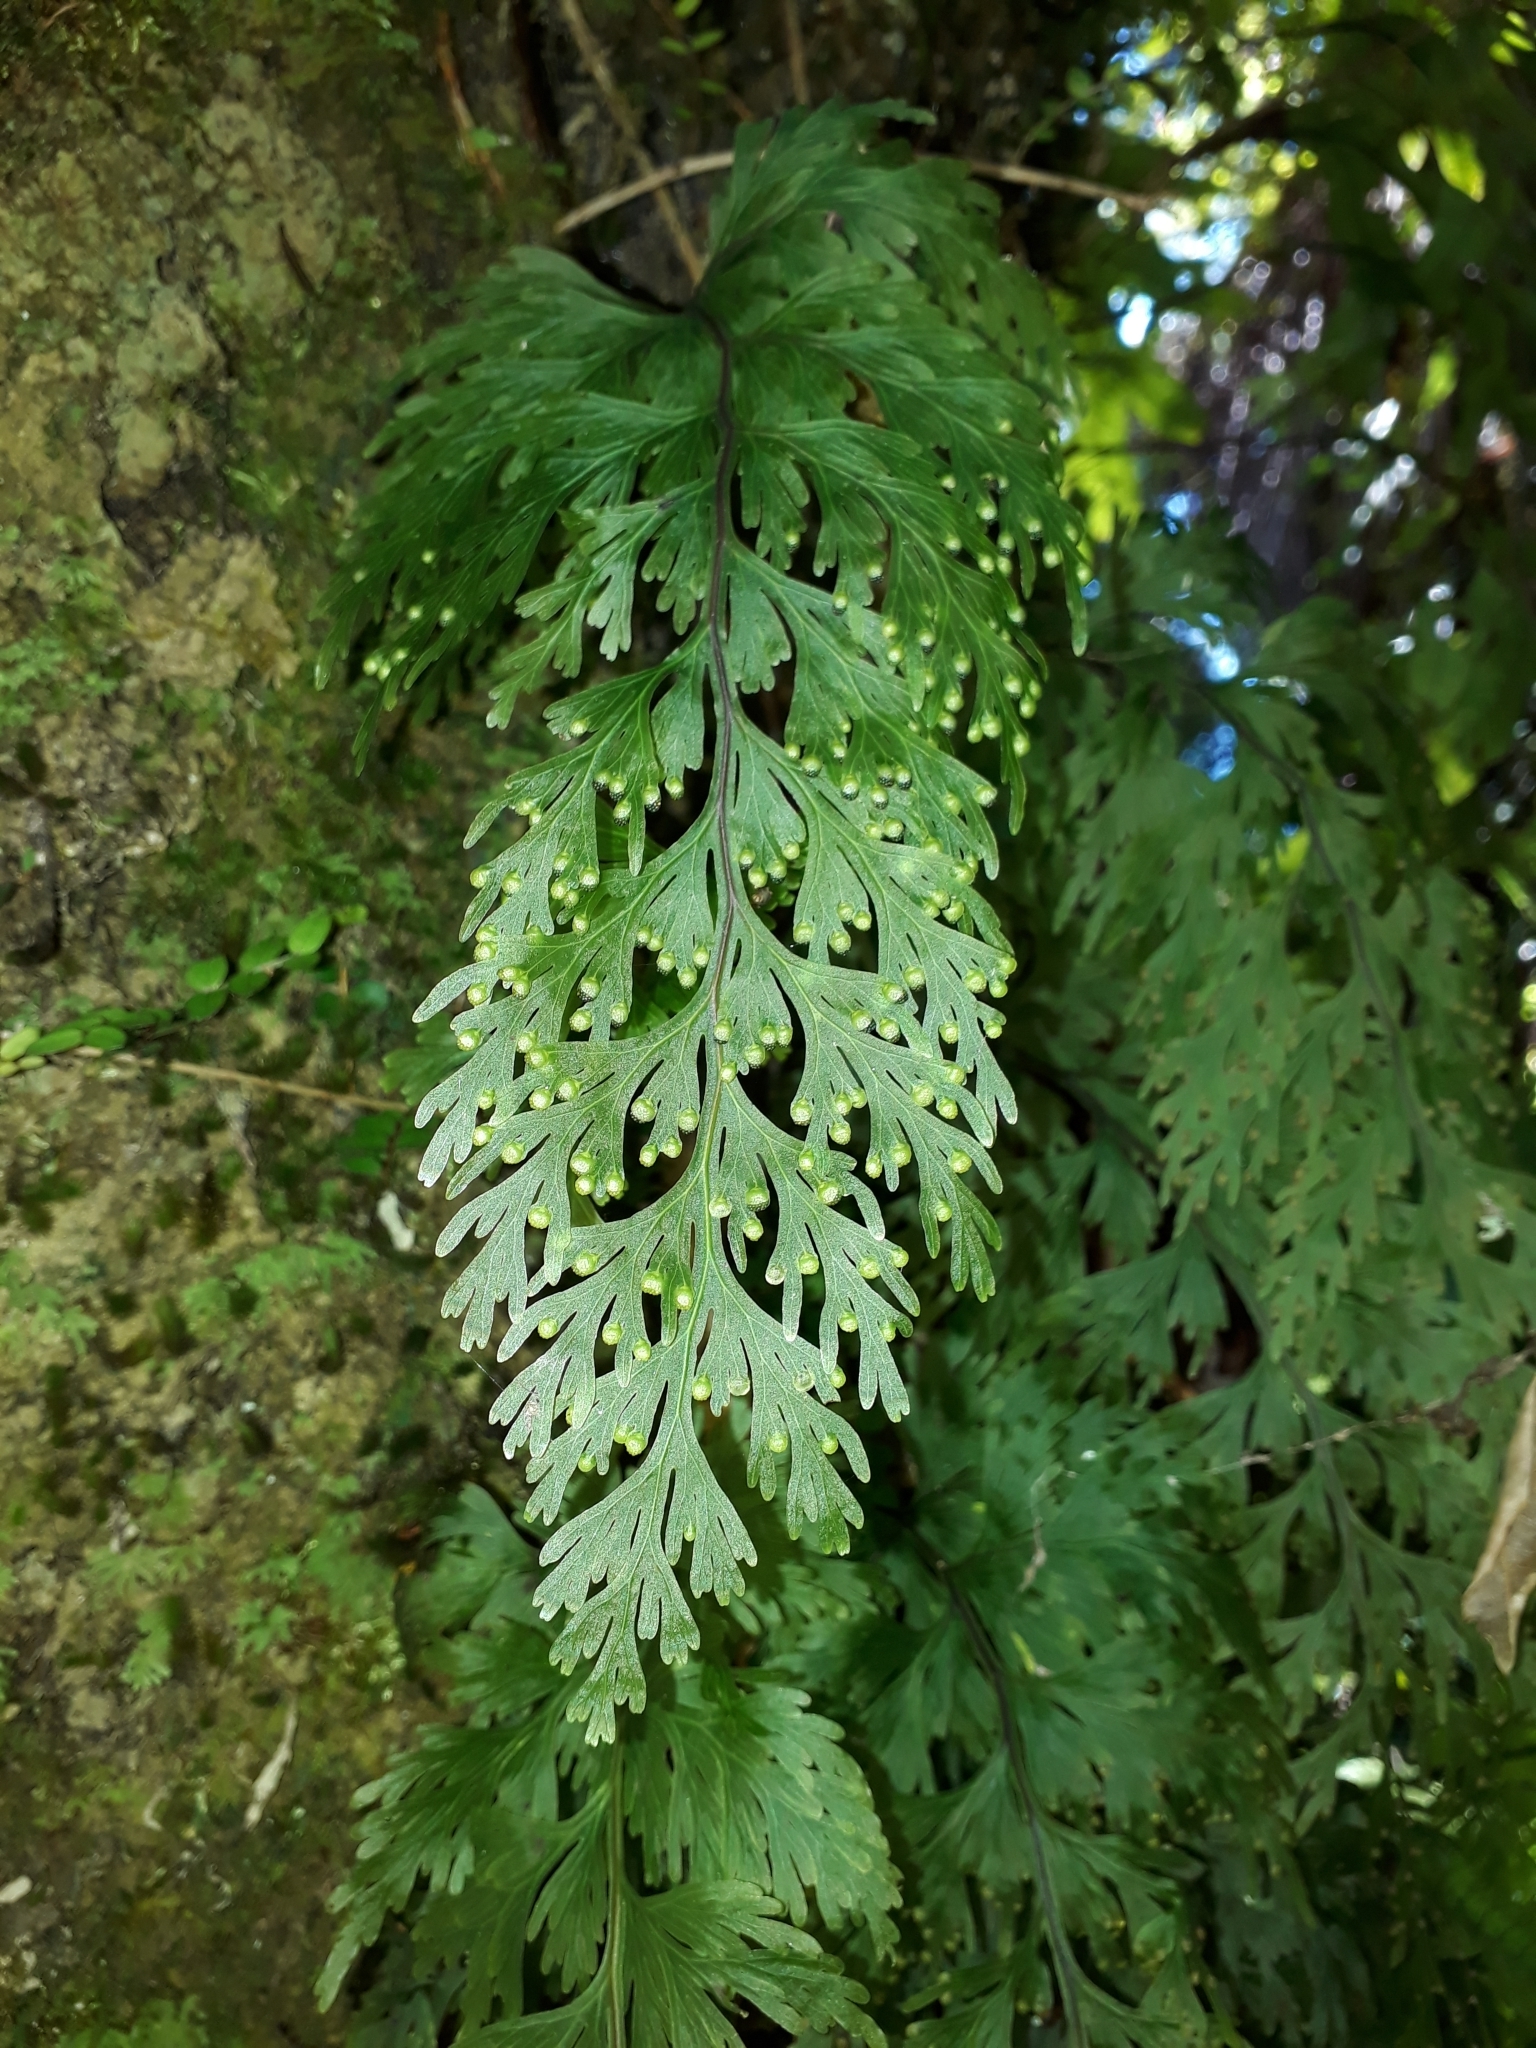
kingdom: Plantae
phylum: Tracheophyta
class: Polypodiopsida
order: Hymenophyllales
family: Hymenophyllaceae
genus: Hymenophyllum
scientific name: Hymenophyllum dilatatum
